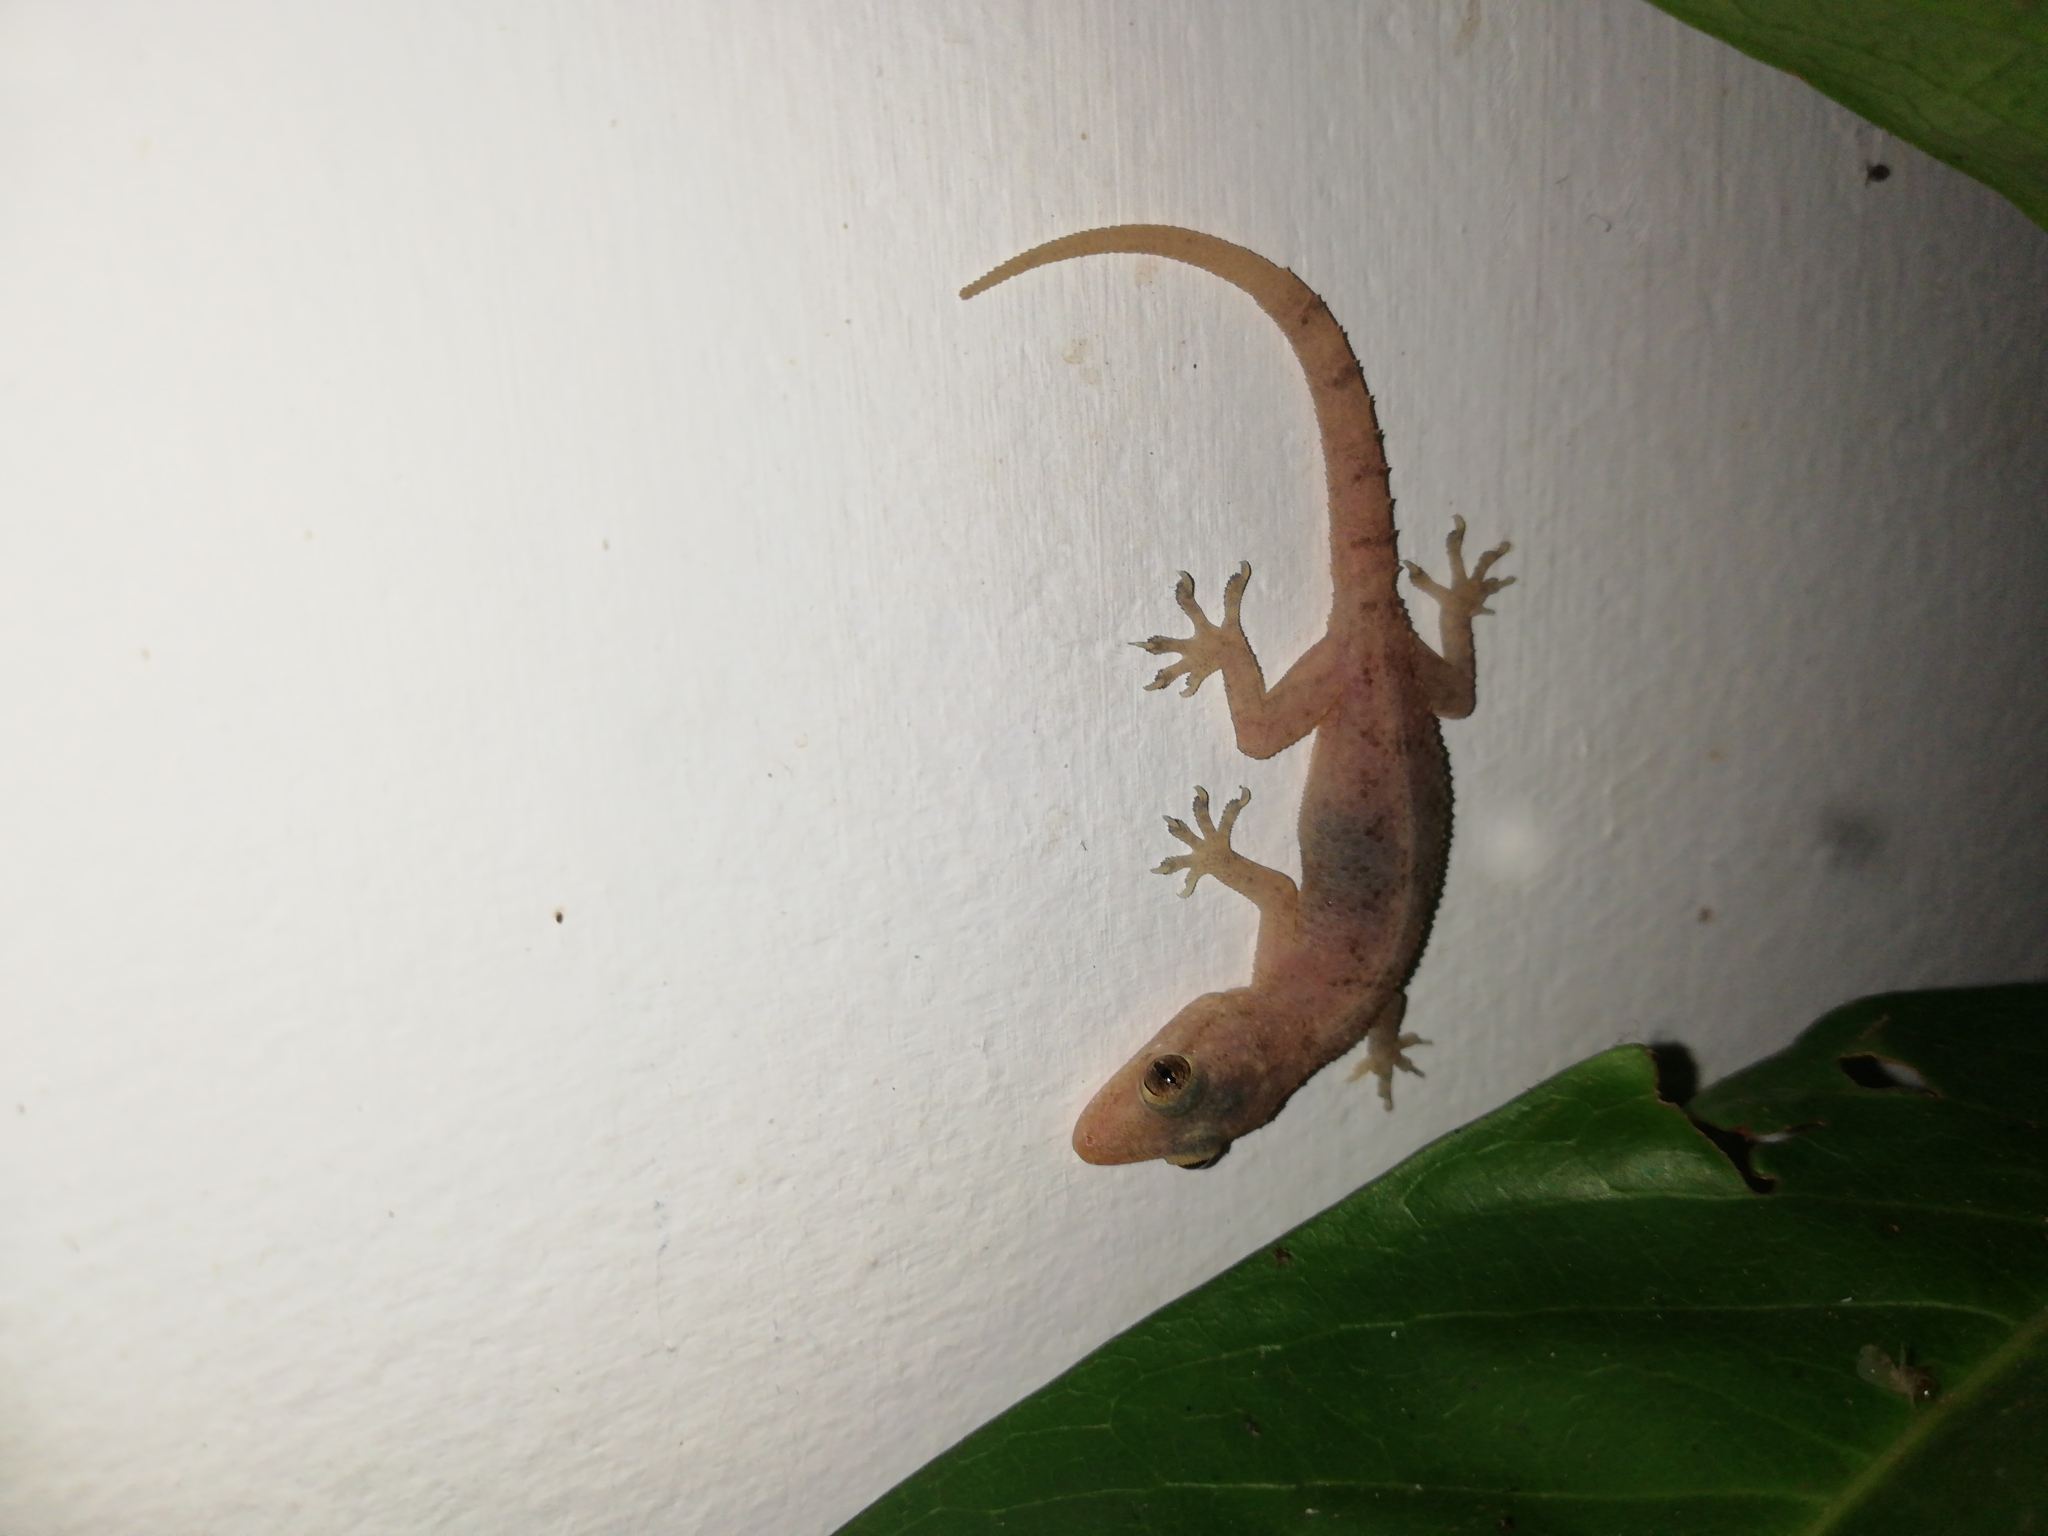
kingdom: Animalia
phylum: Chordata
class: Squamata
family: Gekkonidae
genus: Hemidactylus
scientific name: Hemidactylus frenatus
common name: Common house gecko
